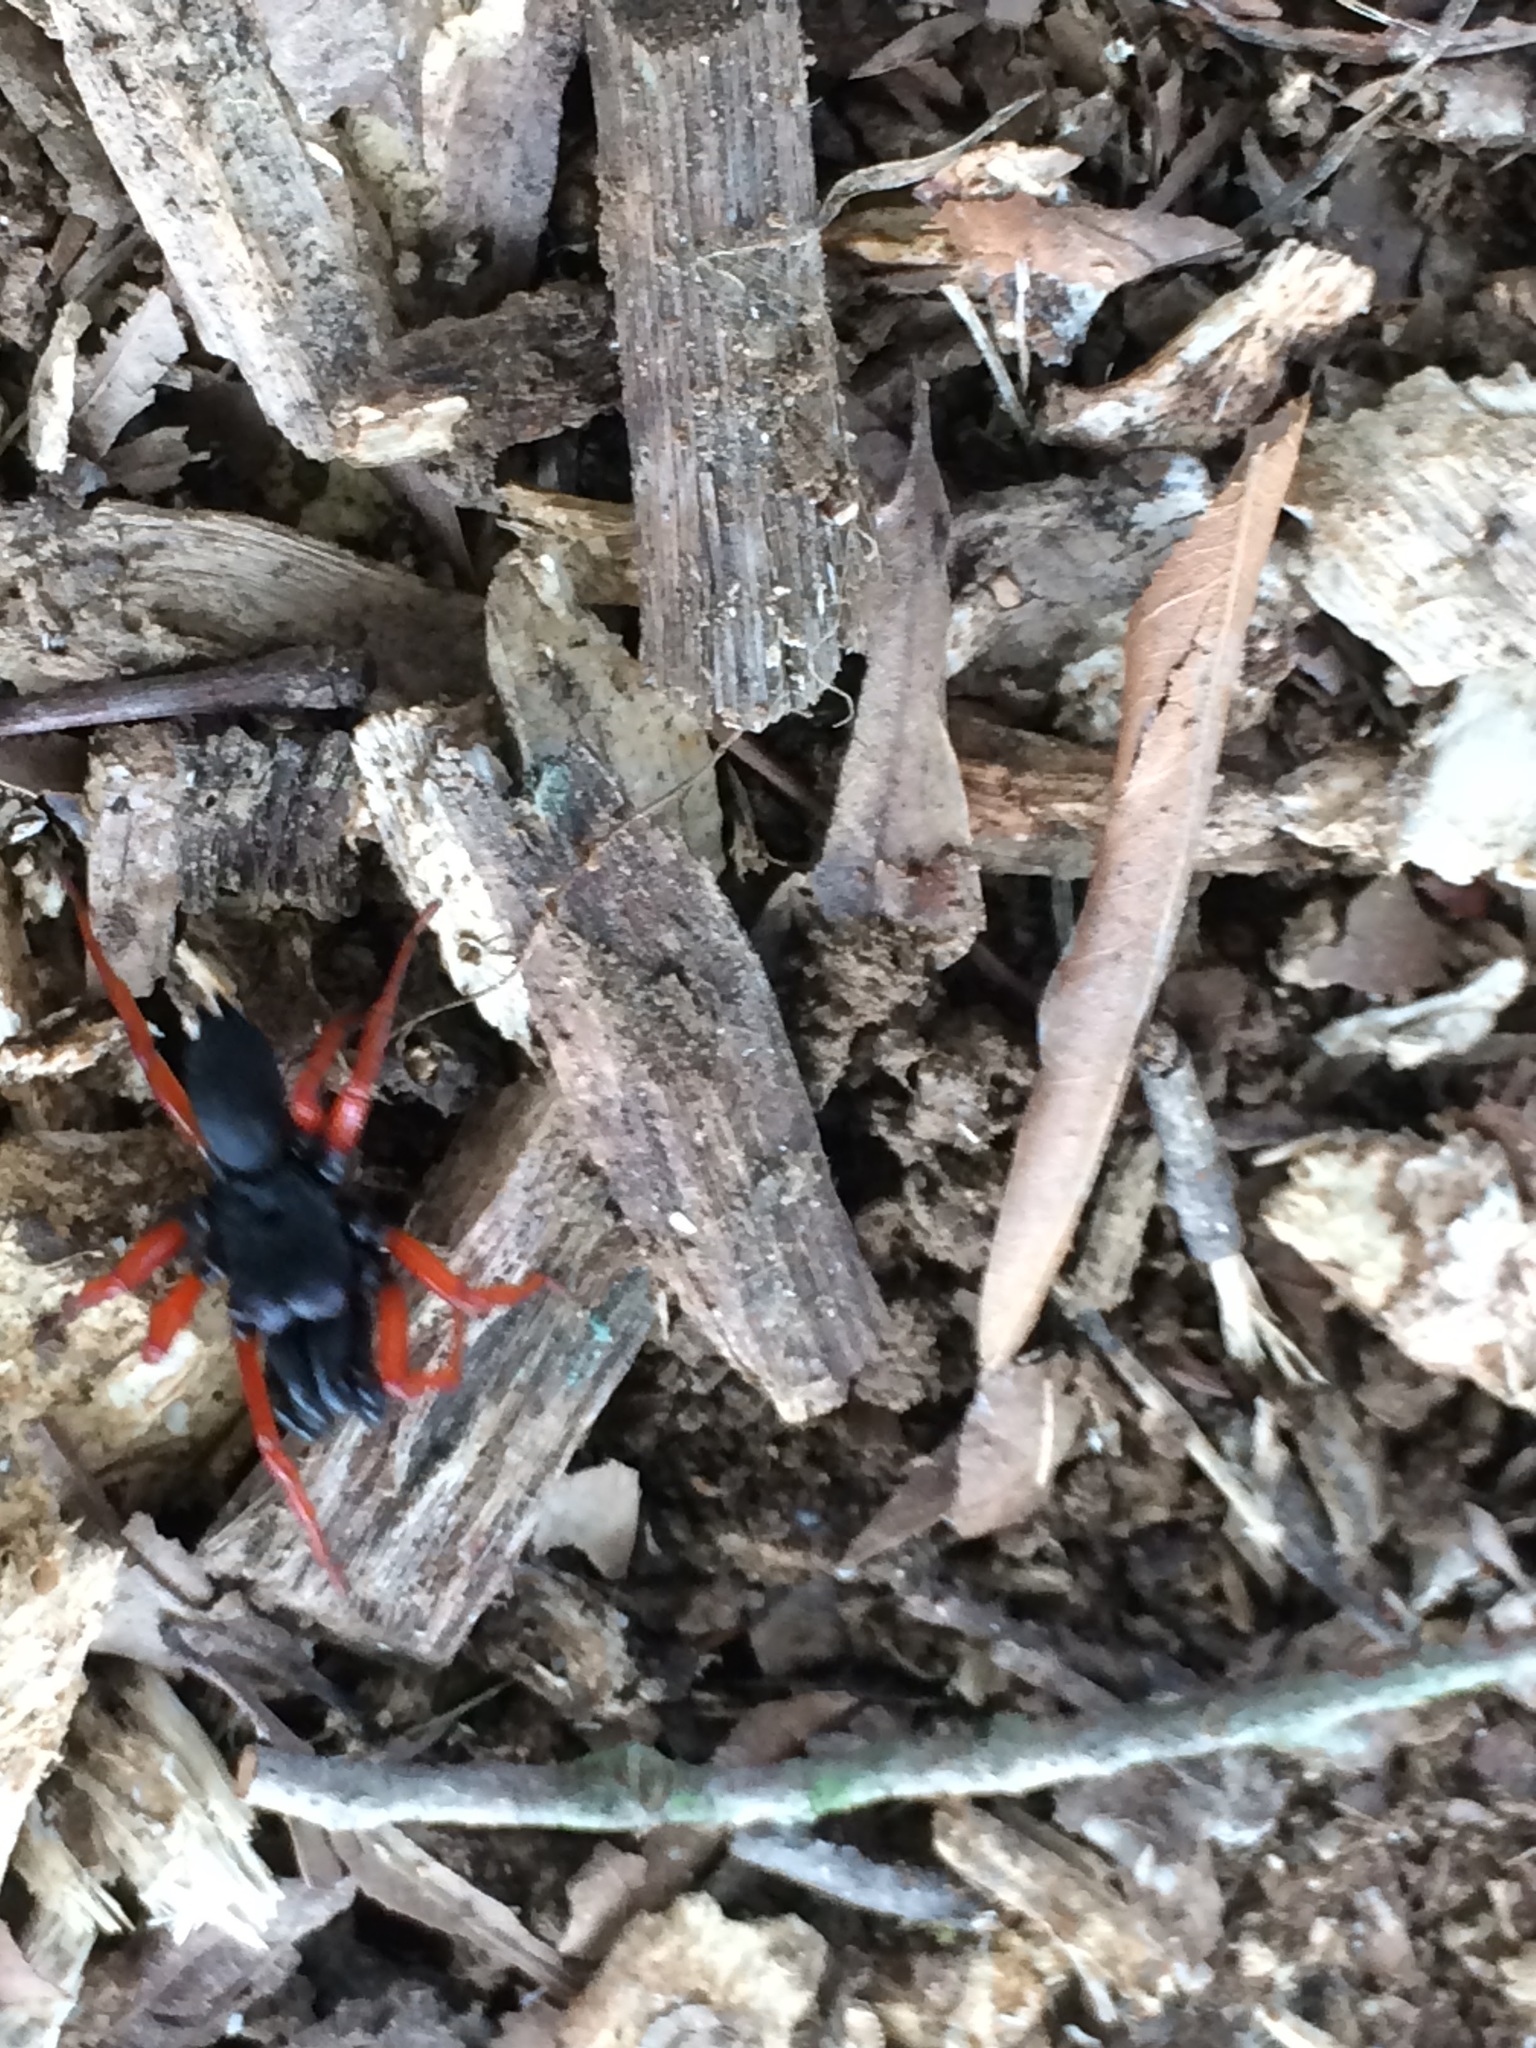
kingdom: Animalia
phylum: Arthropoda
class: Arachnida
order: Araneae
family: Atypidae
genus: Sphodros
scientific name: Sphodros rufipes
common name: Red-legged purseweb spider
